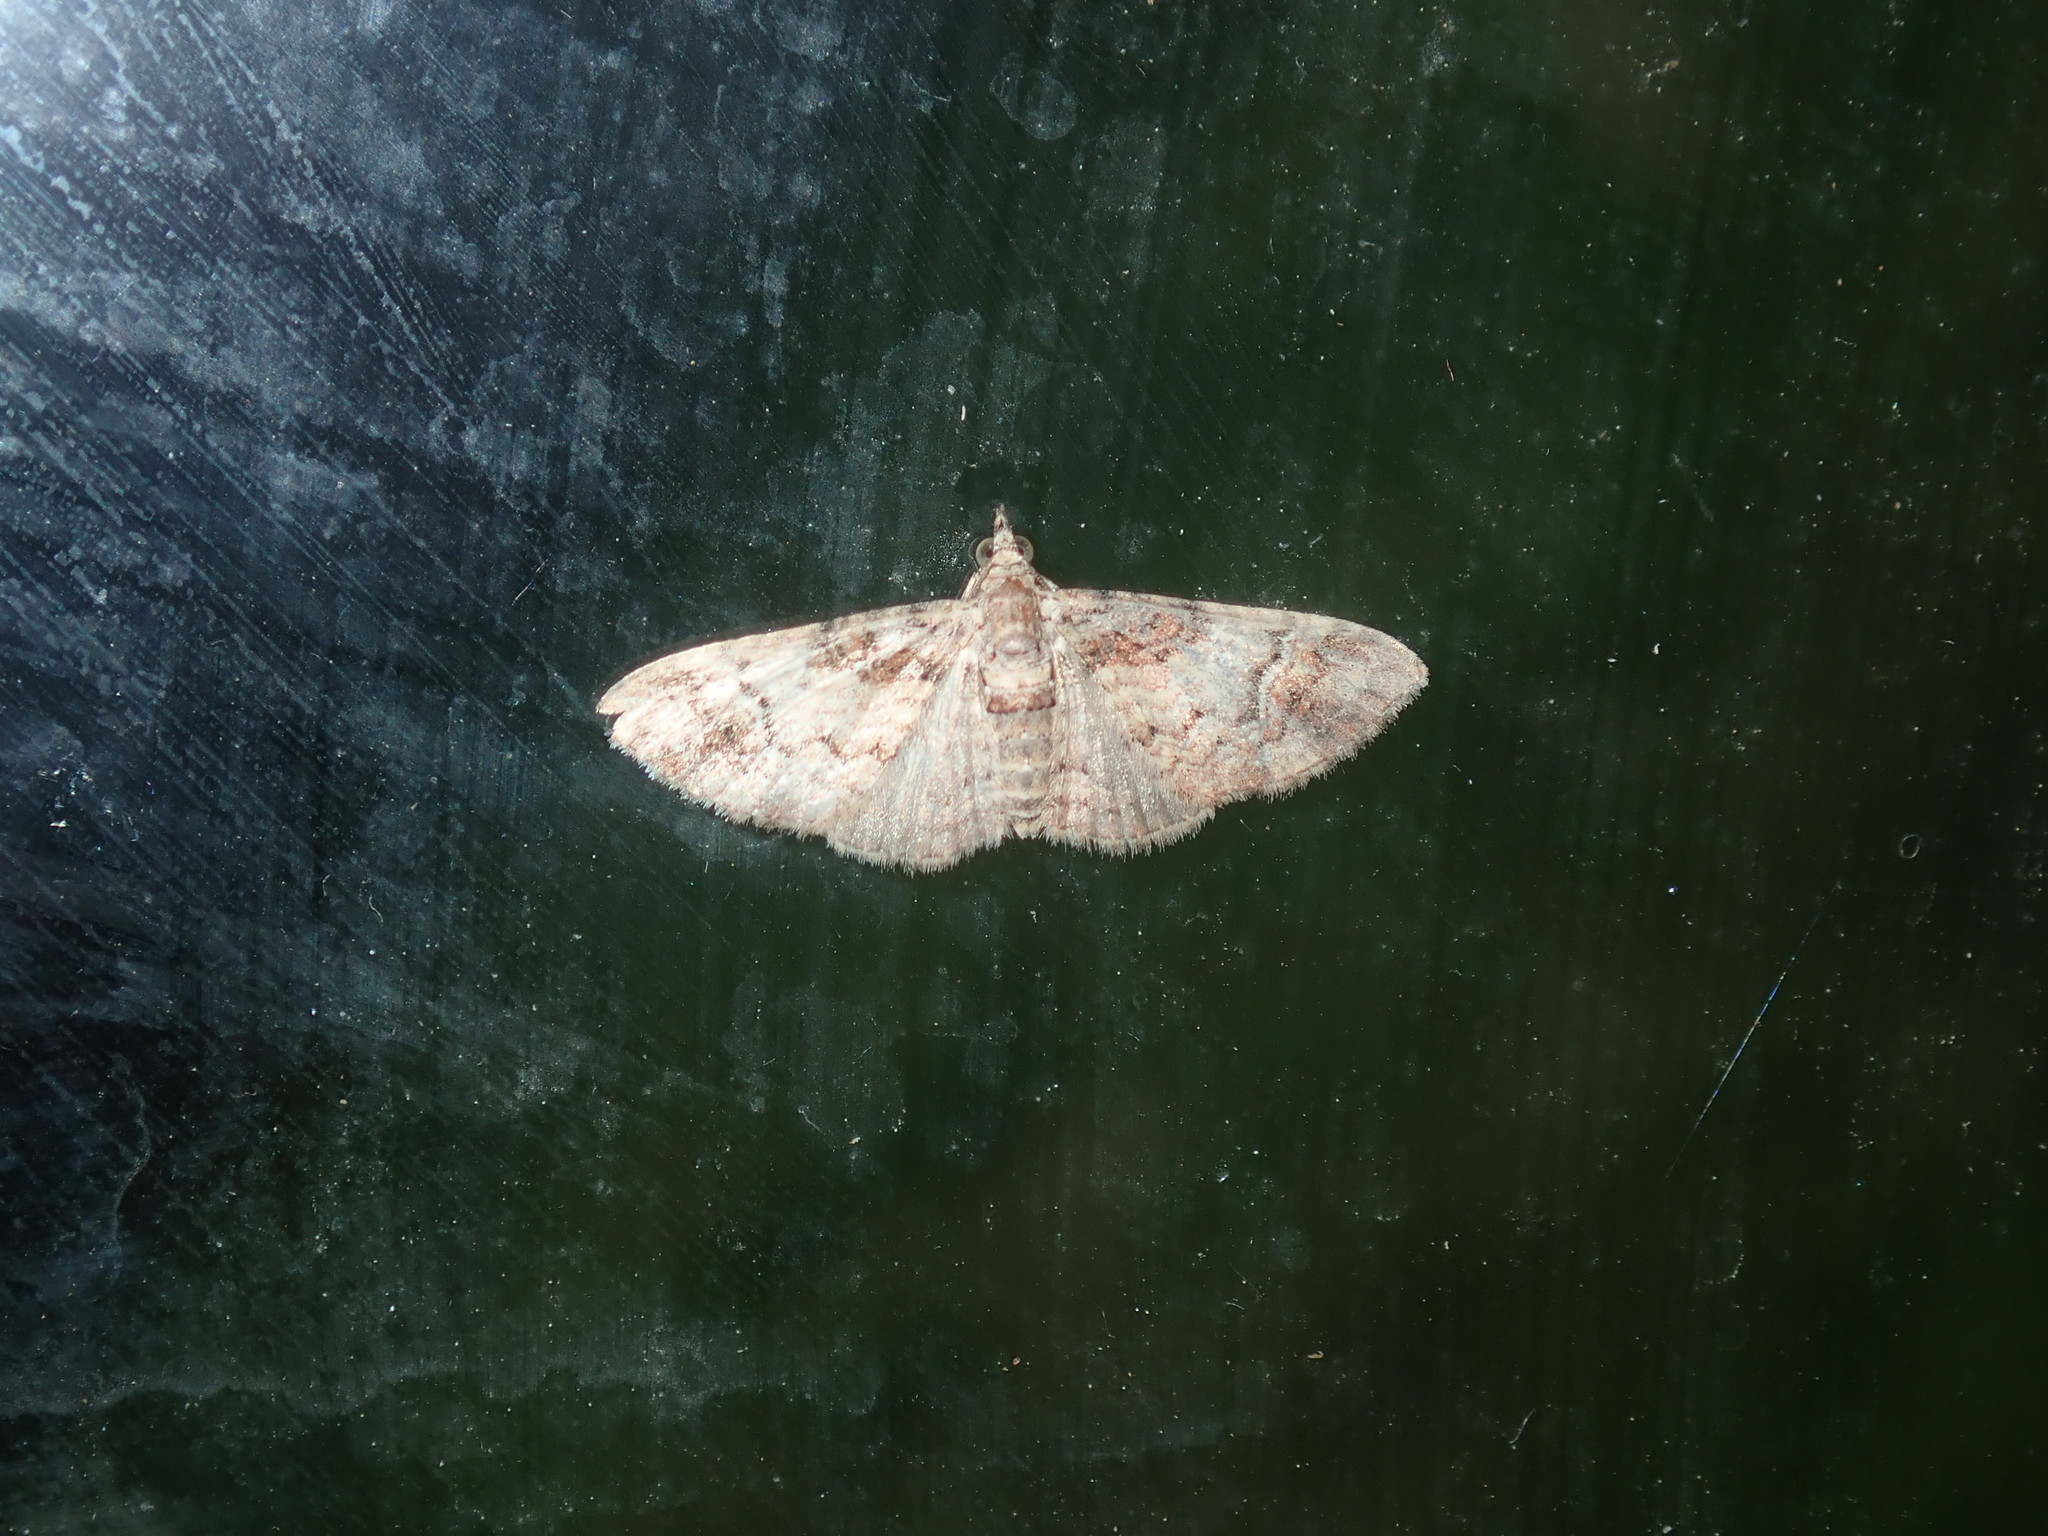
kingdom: Animalia
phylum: Arthropoda
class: Insecta
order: Lepidoptera
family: Geometridae
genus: Mnesiloba
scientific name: Mnesiloba eupitheciata
